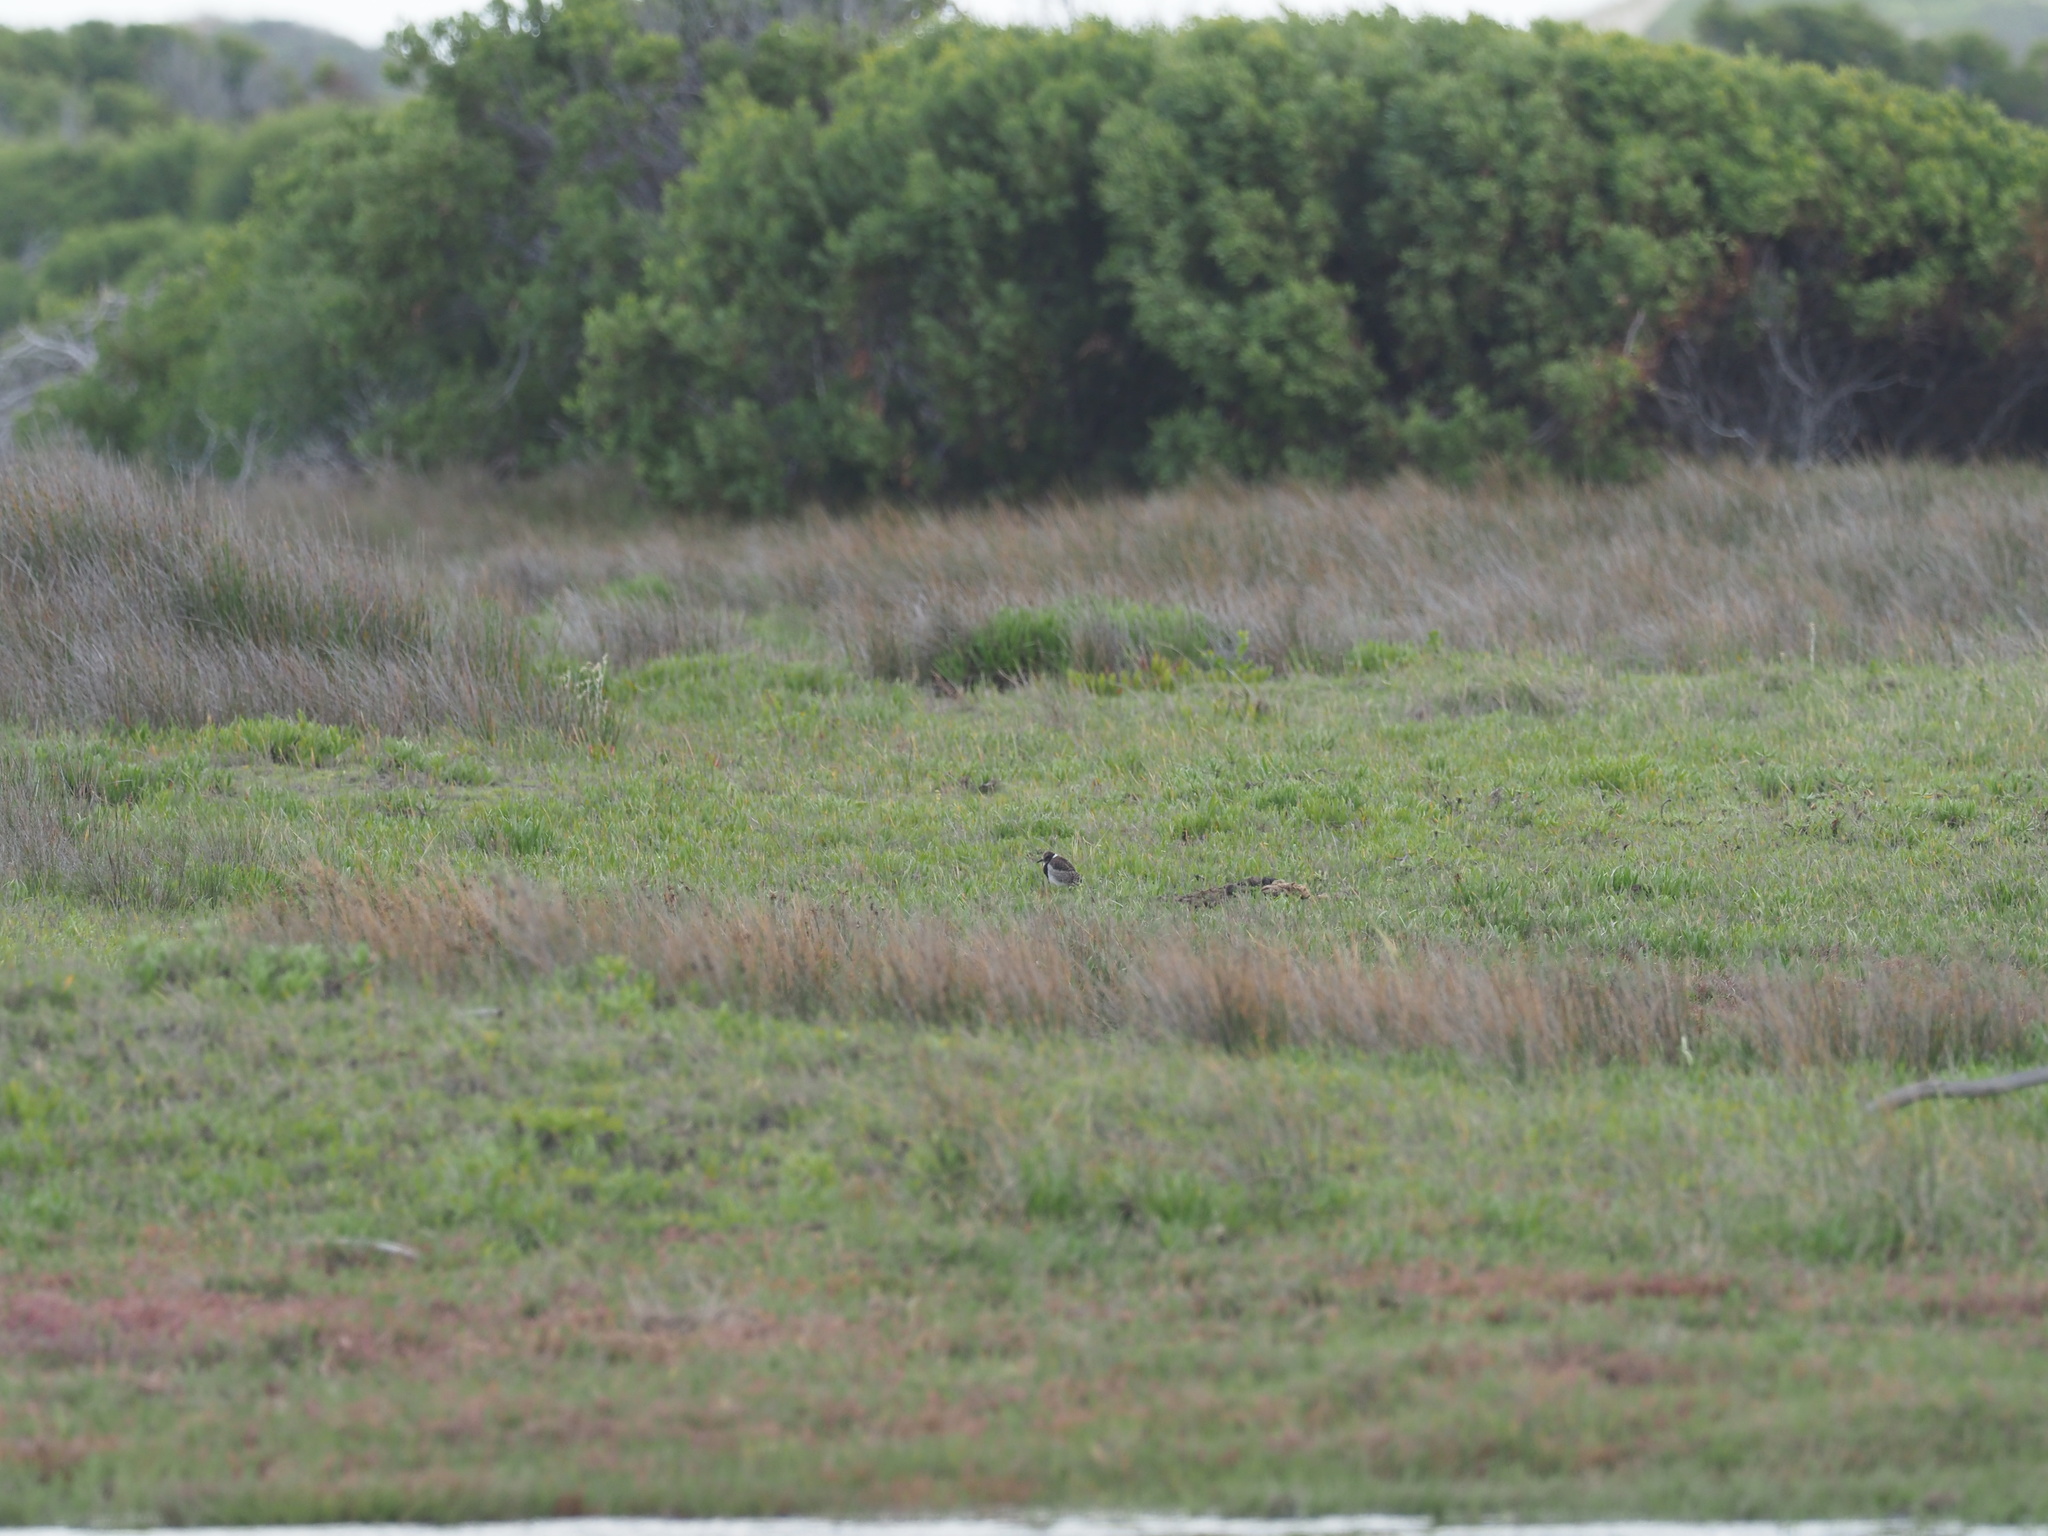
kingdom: Animalia
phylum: Chordata
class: Aves
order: Charadriiformes
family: Charadriidae
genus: Vanellus
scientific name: Vanellus armatus
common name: Blacksmith lapwing
